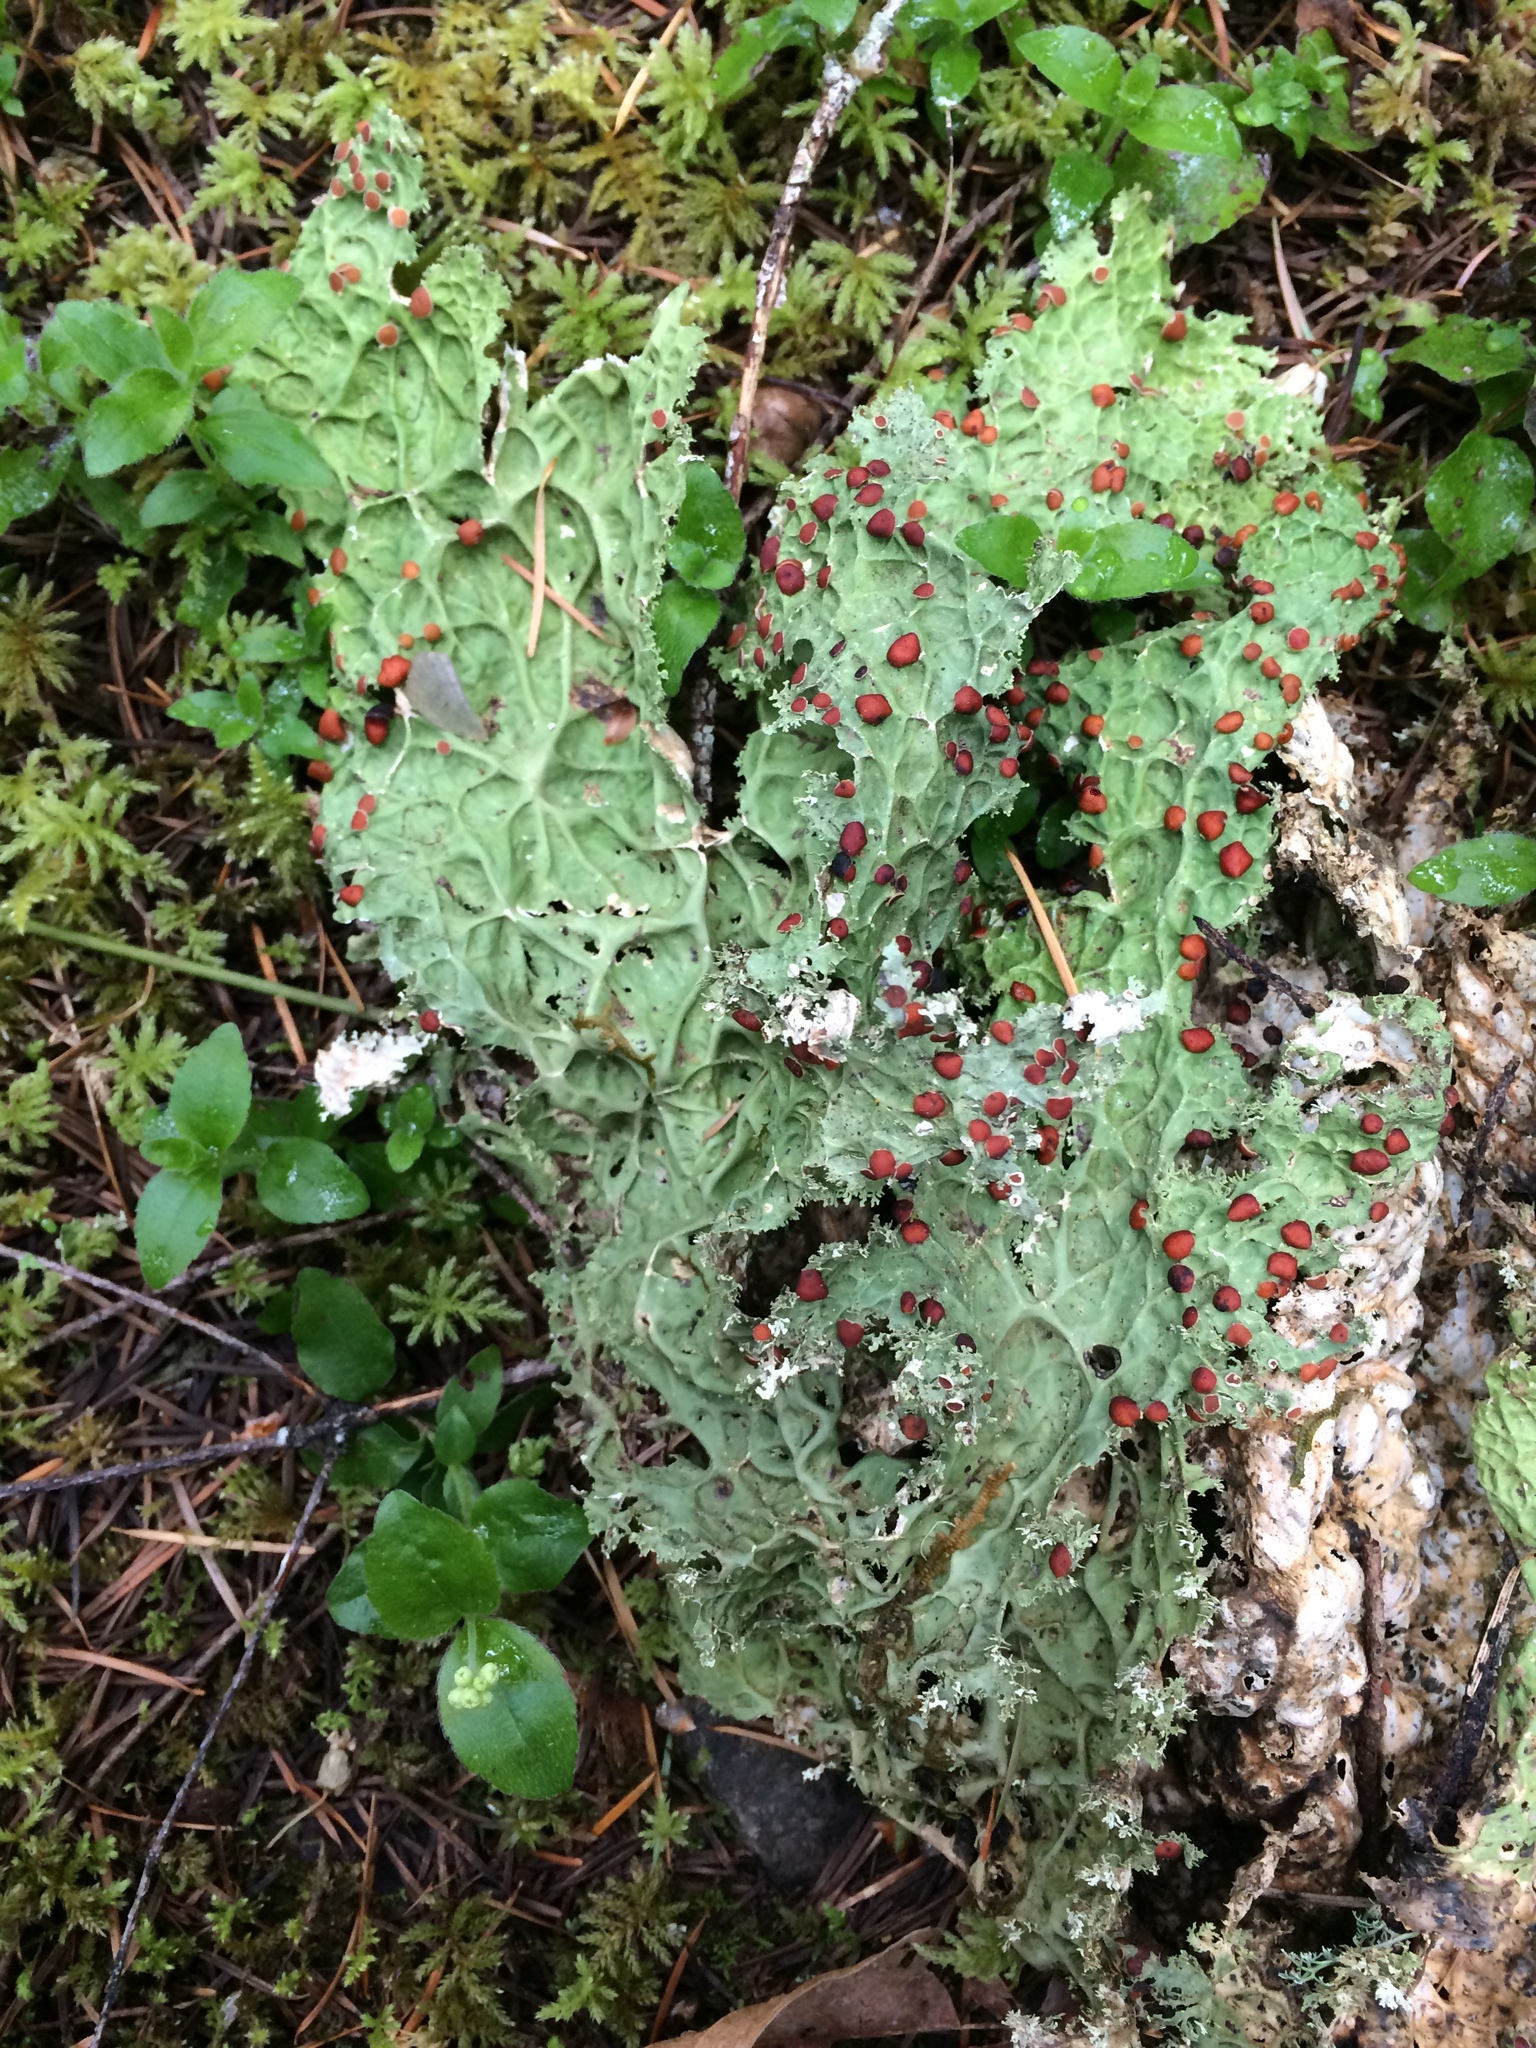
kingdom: Fungi
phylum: Ascomycota
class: Lecanoromycetes
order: Peltigerales
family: Lobariaceae
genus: Lobaria
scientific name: Lobaria oregana
